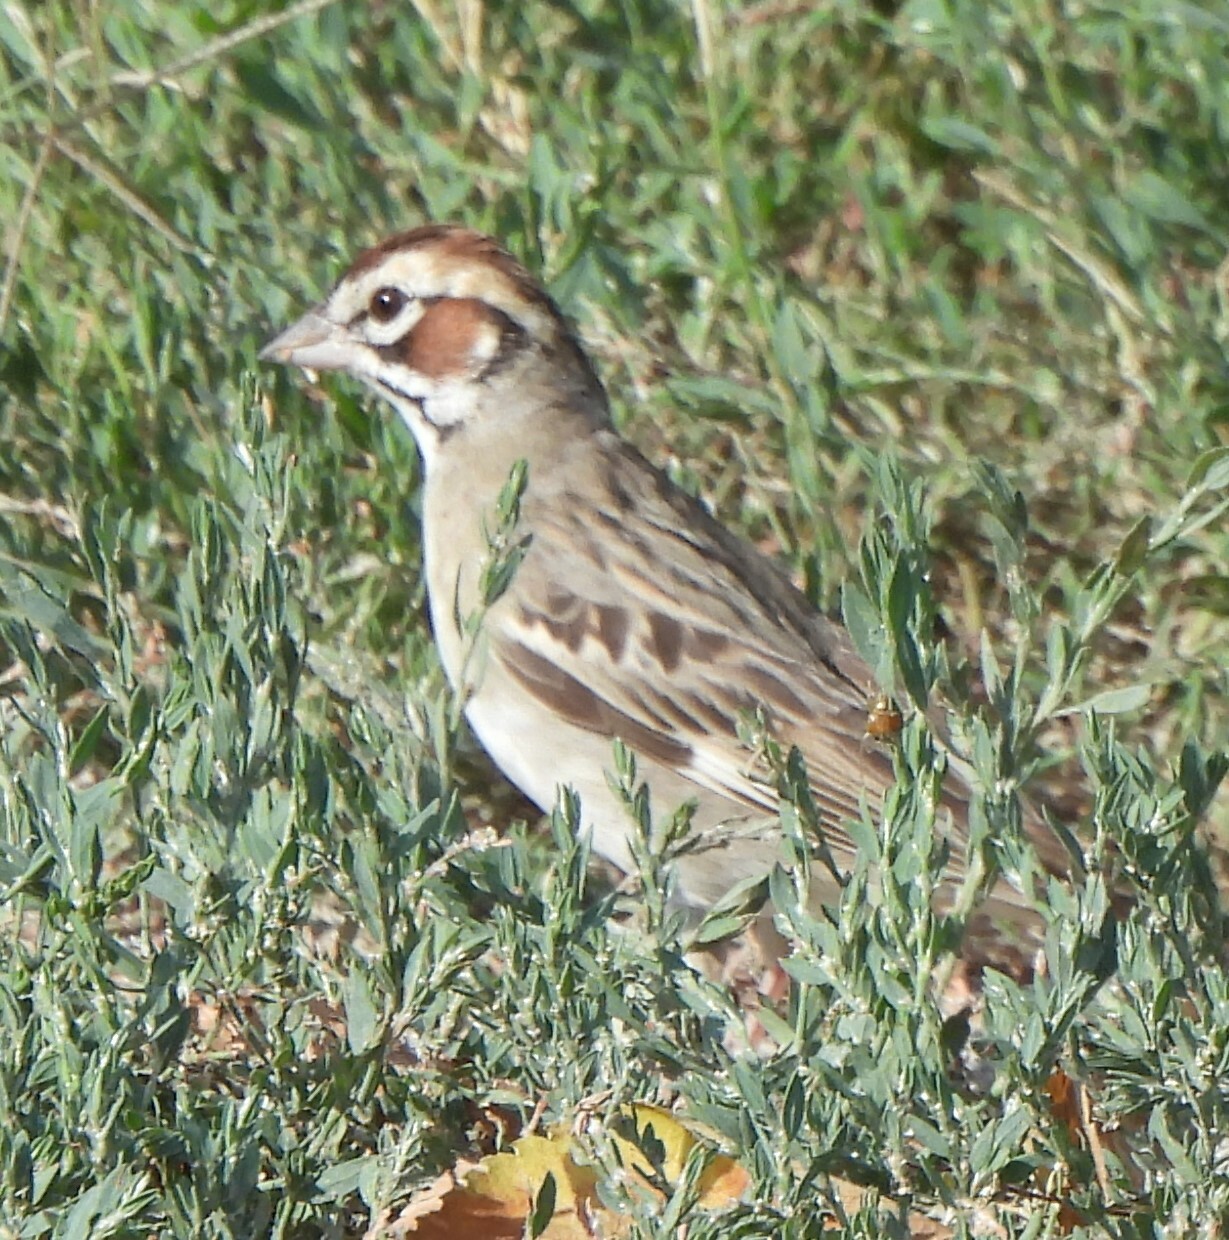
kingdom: Animalia
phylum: Chordata
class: Aves
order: Passeriformes
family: Passerellidae
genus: Chondestes
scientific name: Chondestes grammacus
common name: Lark sparrow
